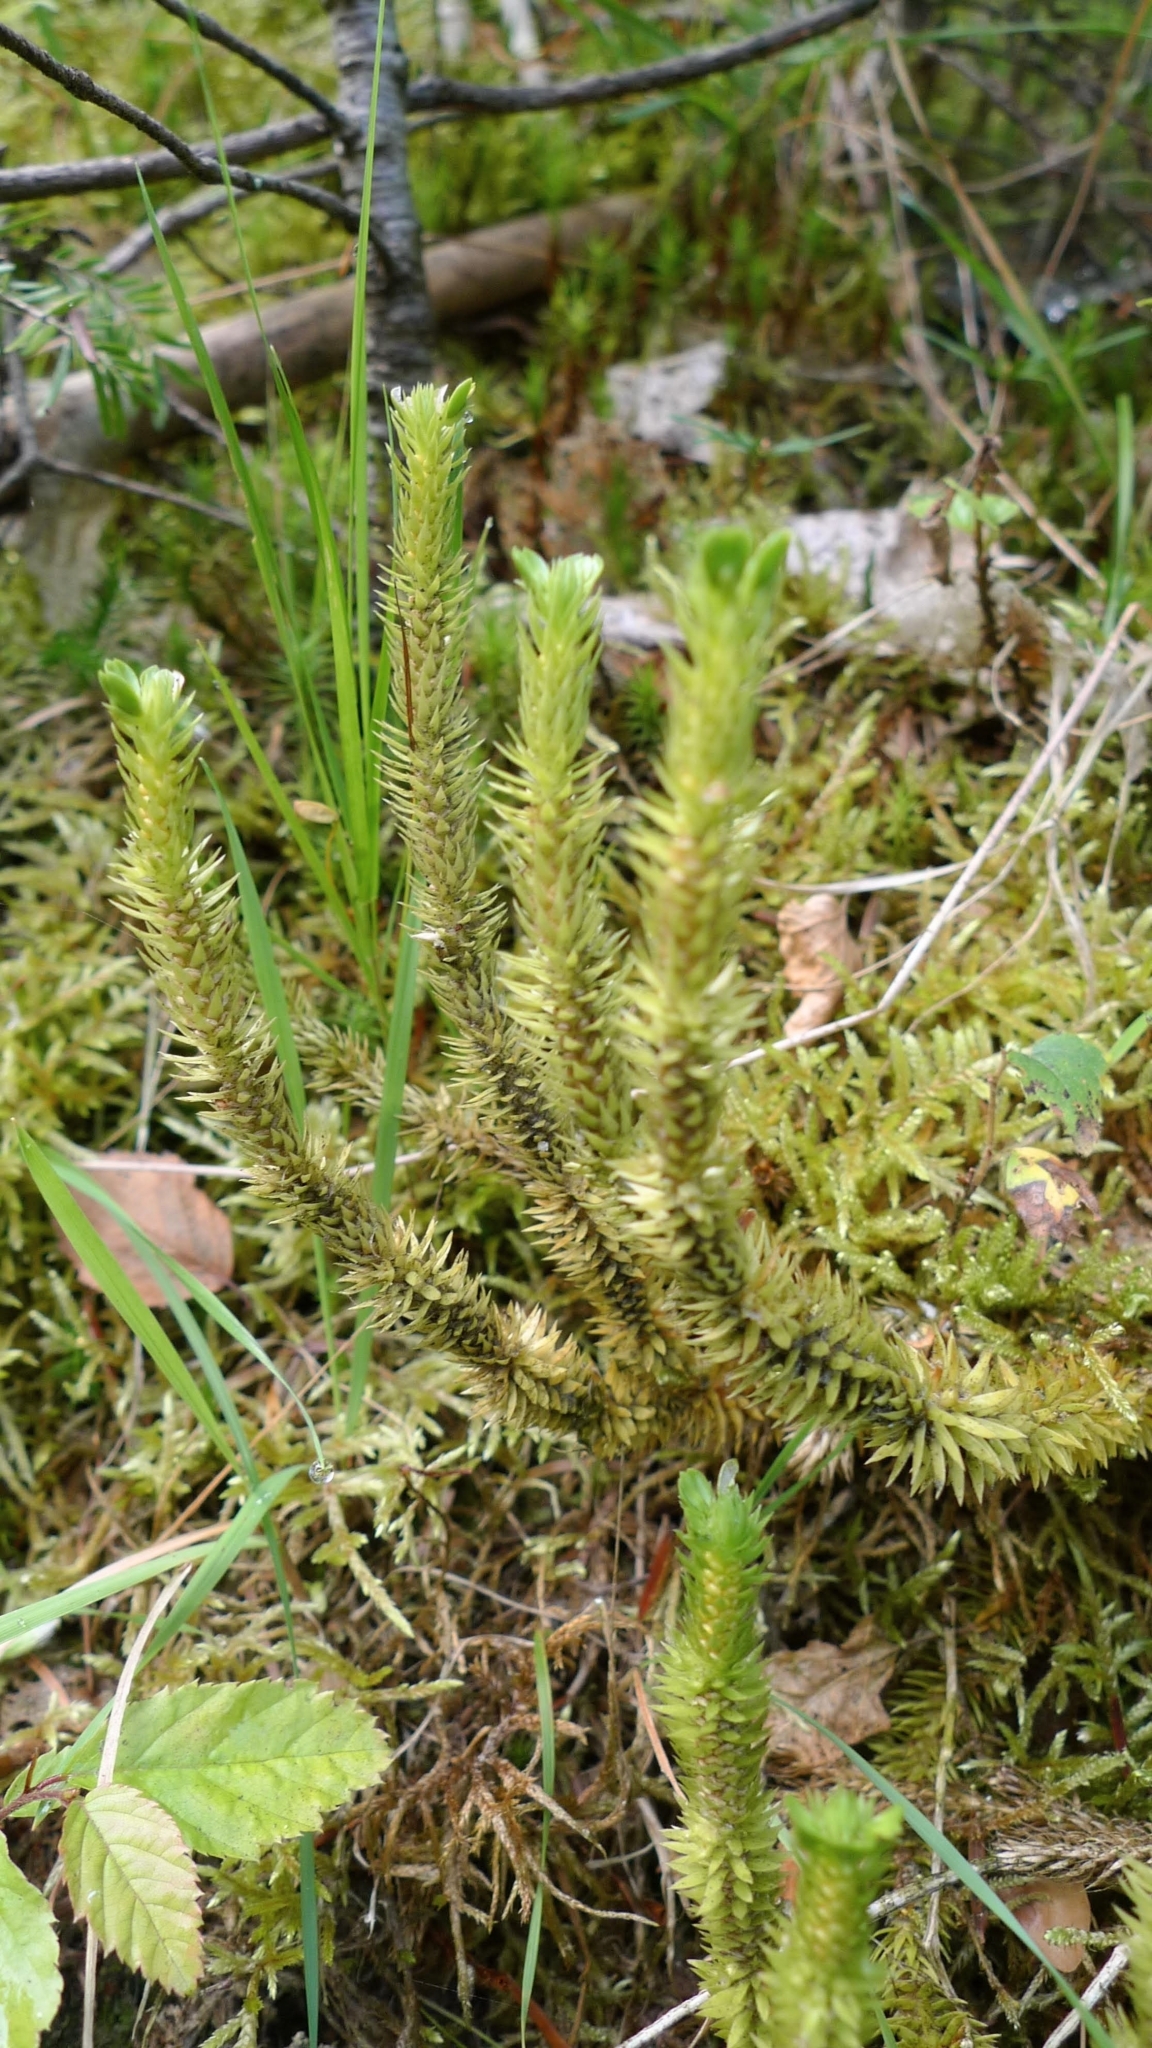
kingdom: Plantae
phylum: Tracheophyta
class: Lycopodiopsida
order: Lycopodiales
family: Lycopodiaceae
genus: Huperzia
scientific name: Huperzia selago
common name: Northern firmoss
